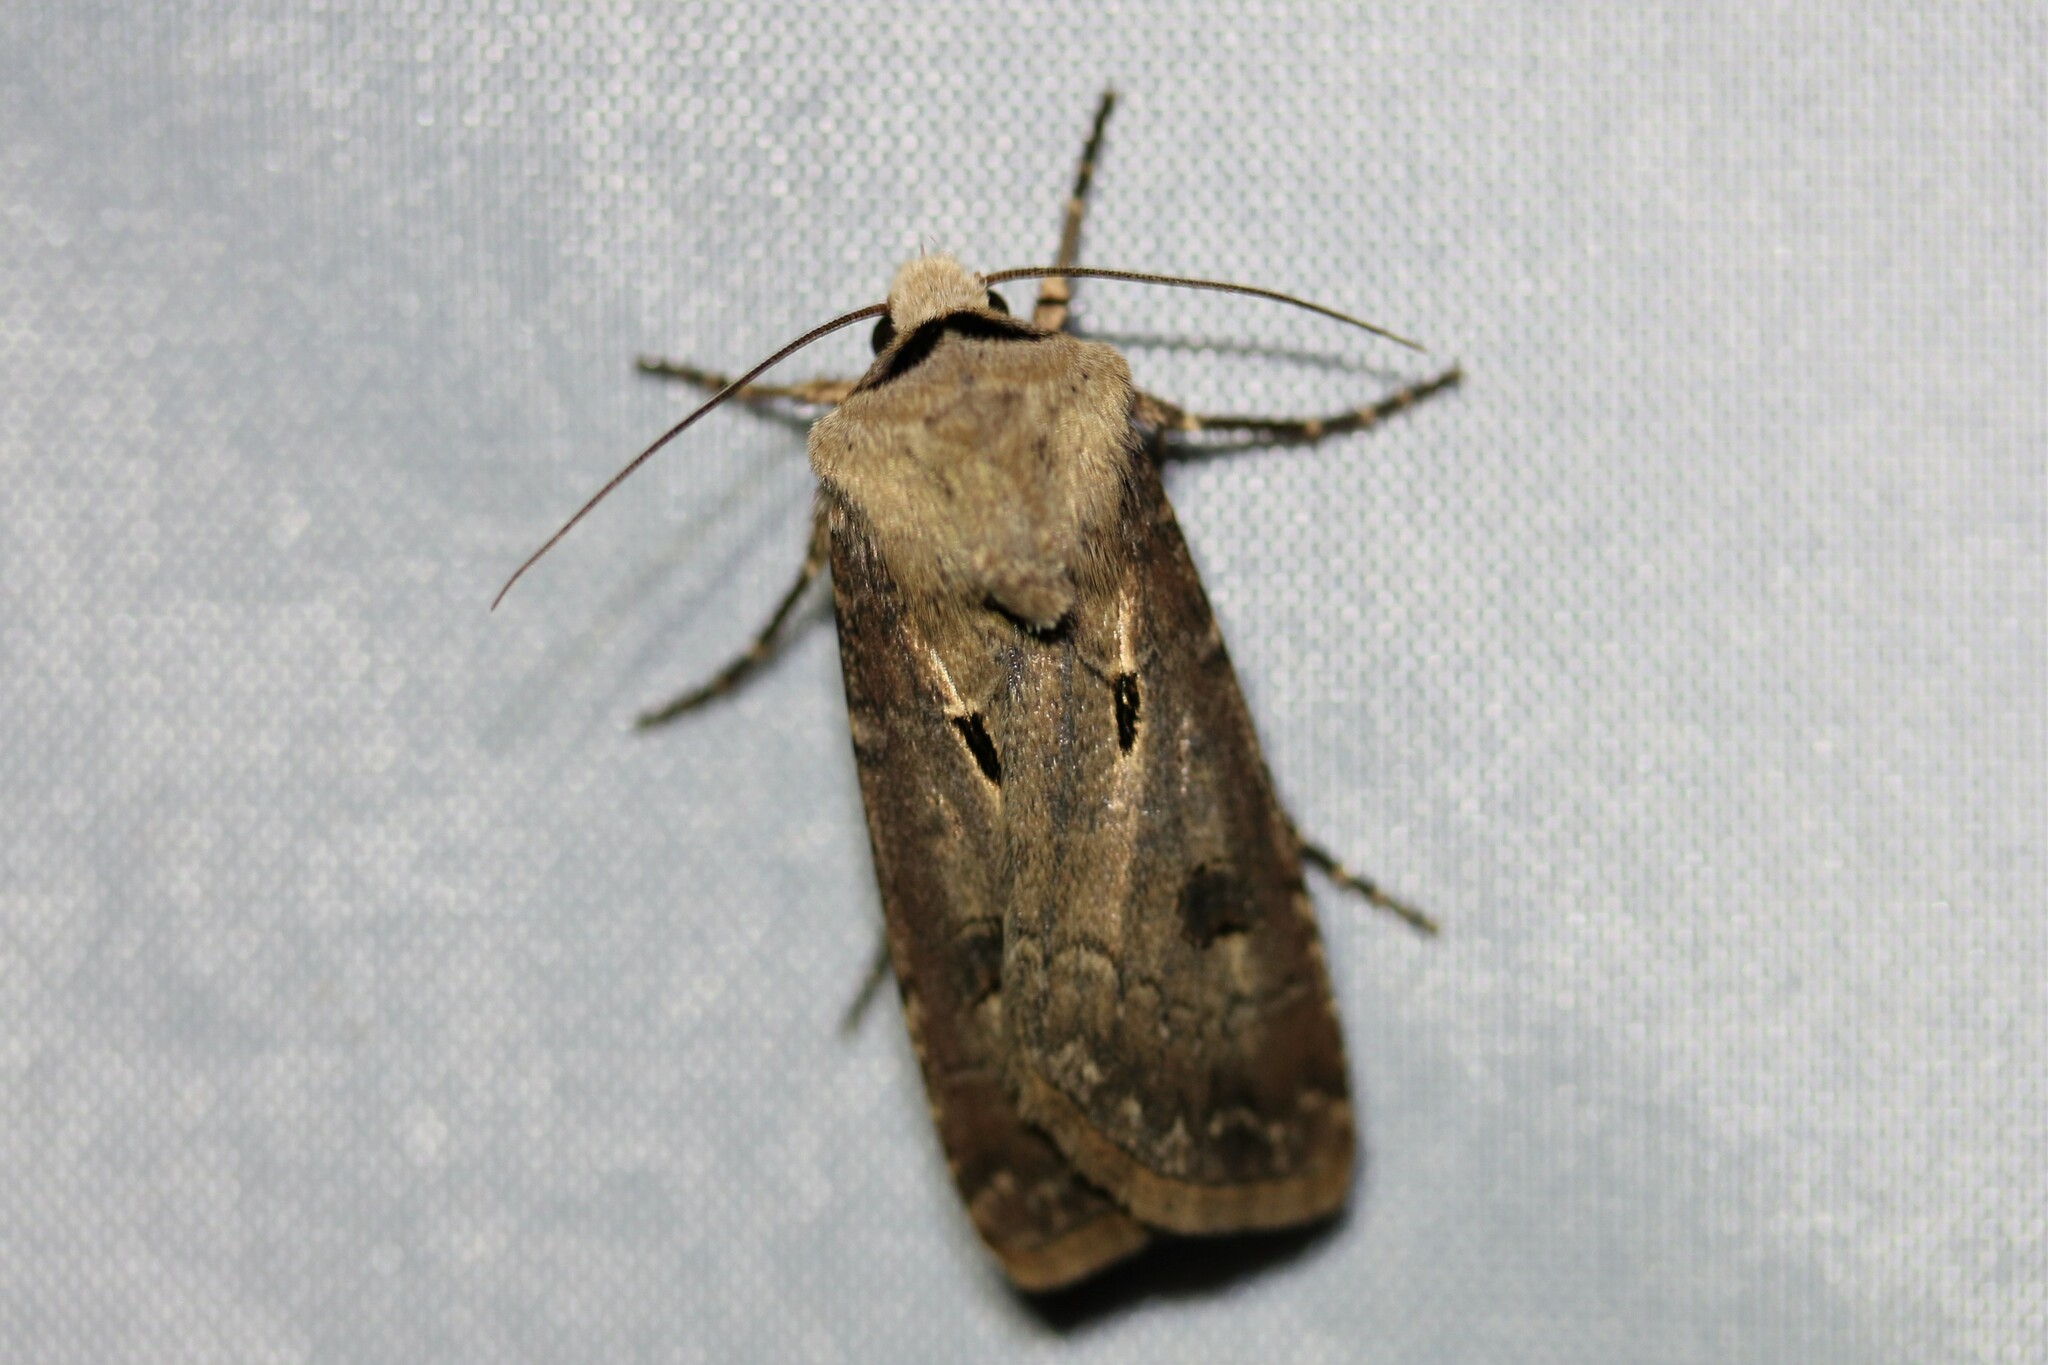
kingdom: Animalia
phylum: Arthropoda
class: Insecta
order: Lepidoptera
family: Noctuidae
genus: Agrotis
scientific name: Agrotis exclamationis
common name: Heart and dart
